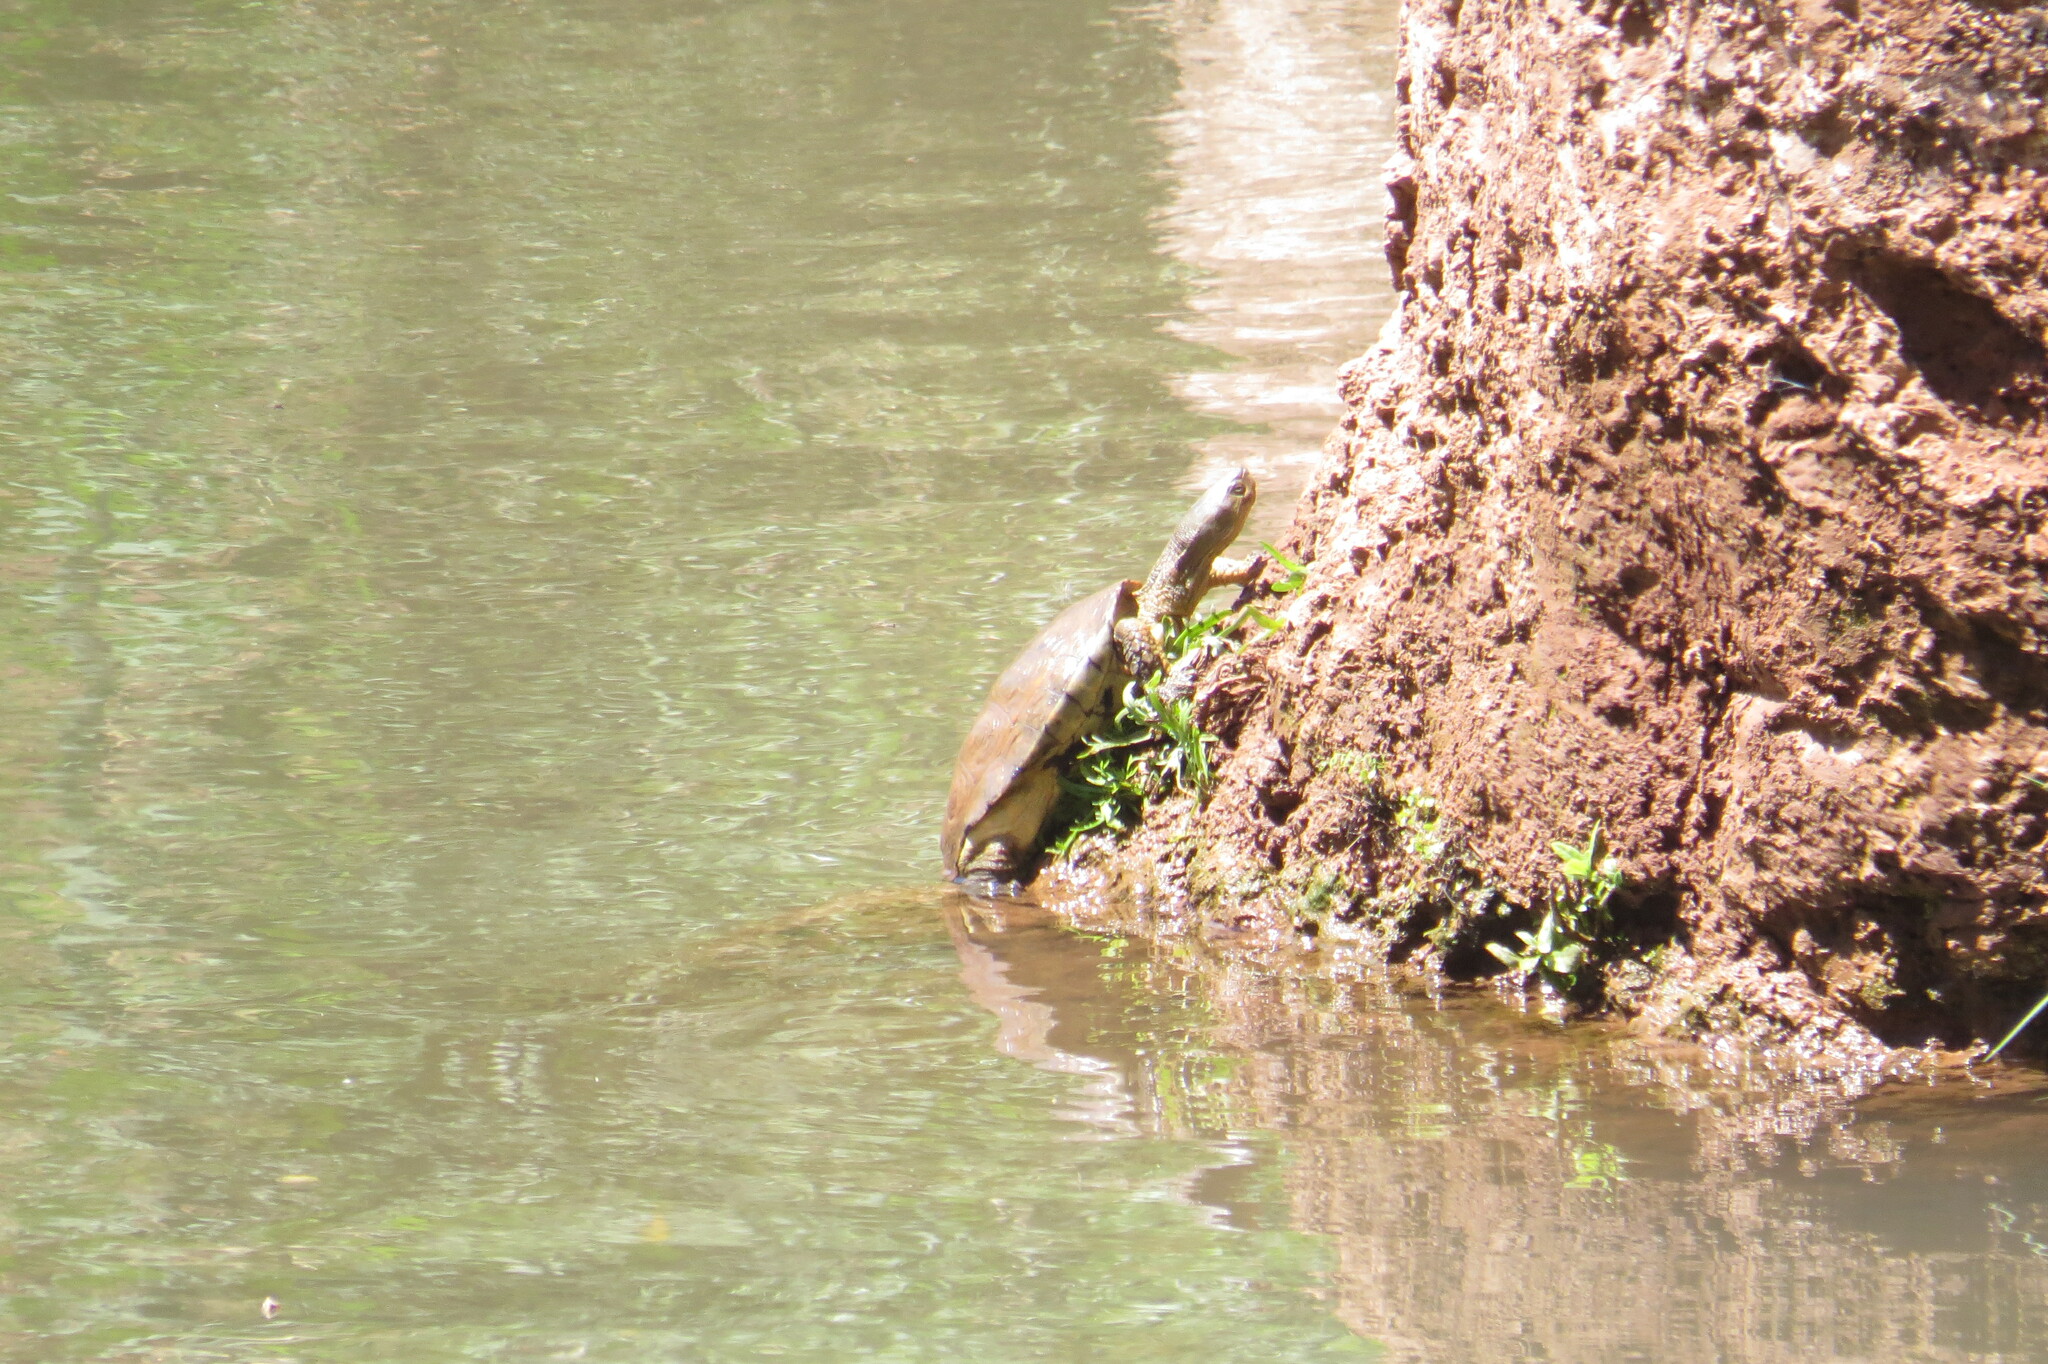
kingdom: Animalia
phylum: Chordata
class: Testudines
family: Geoemydidae
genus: Mauremys
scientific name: Mauremys leprosa
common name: Mediterranean pond turtle
